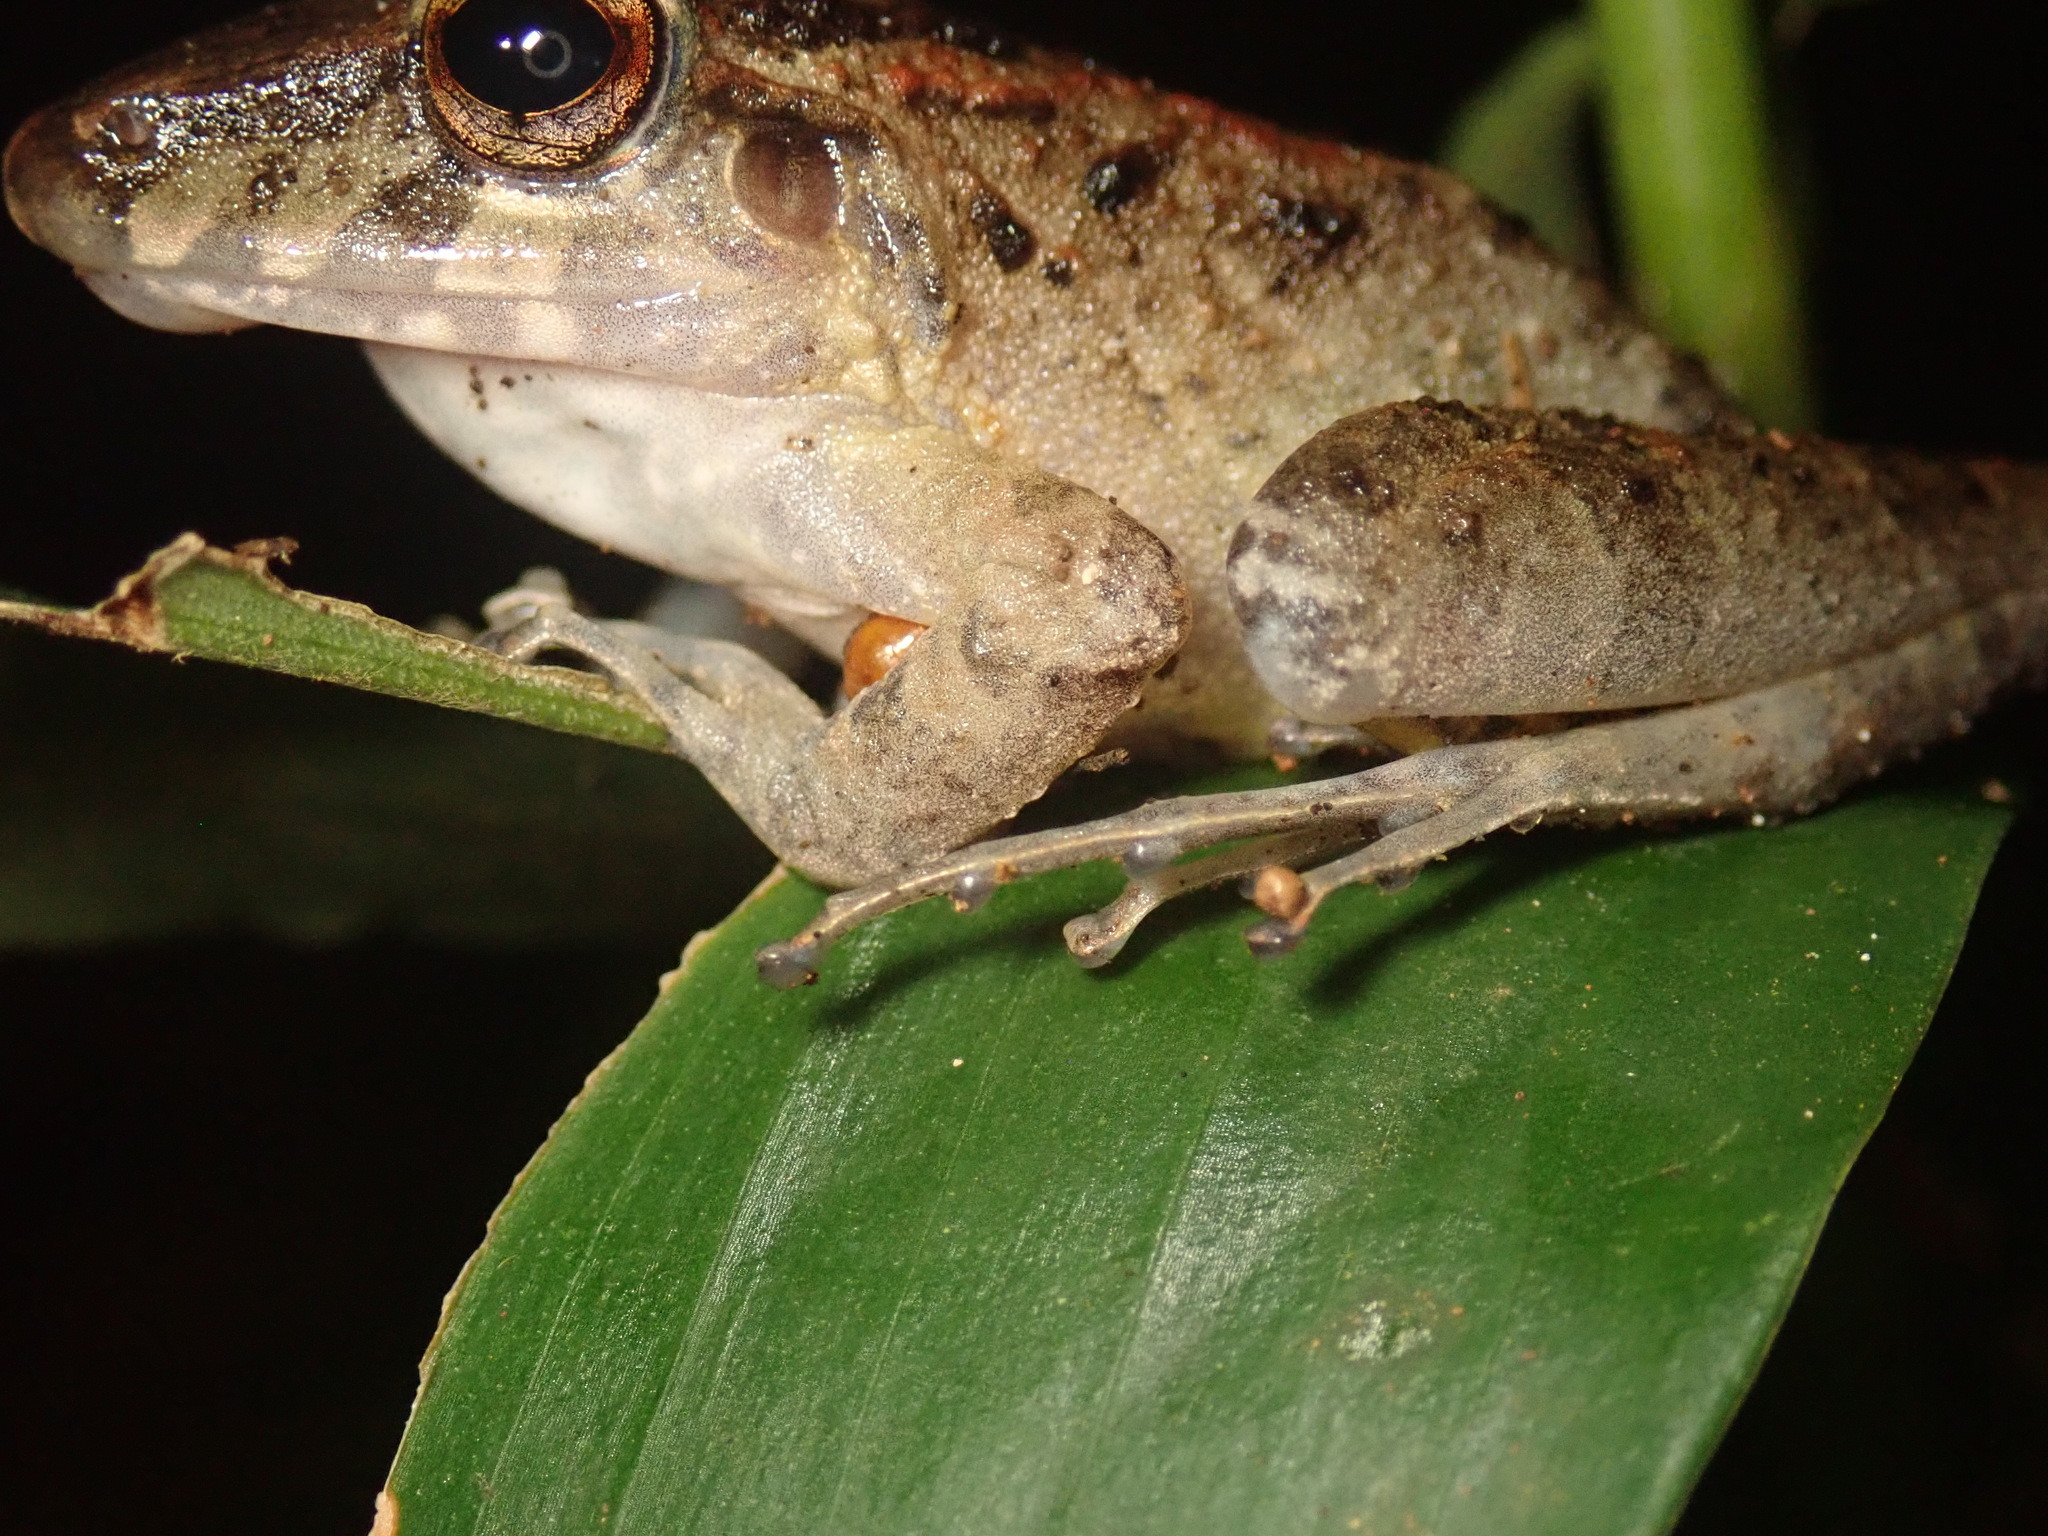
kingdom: Animalia
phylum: Chordata
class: Amphibia
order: Anura
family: Craugastoridae
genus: Craugastor
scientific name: Craugastor fitzingeri
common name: Fitzinger's robber frog
